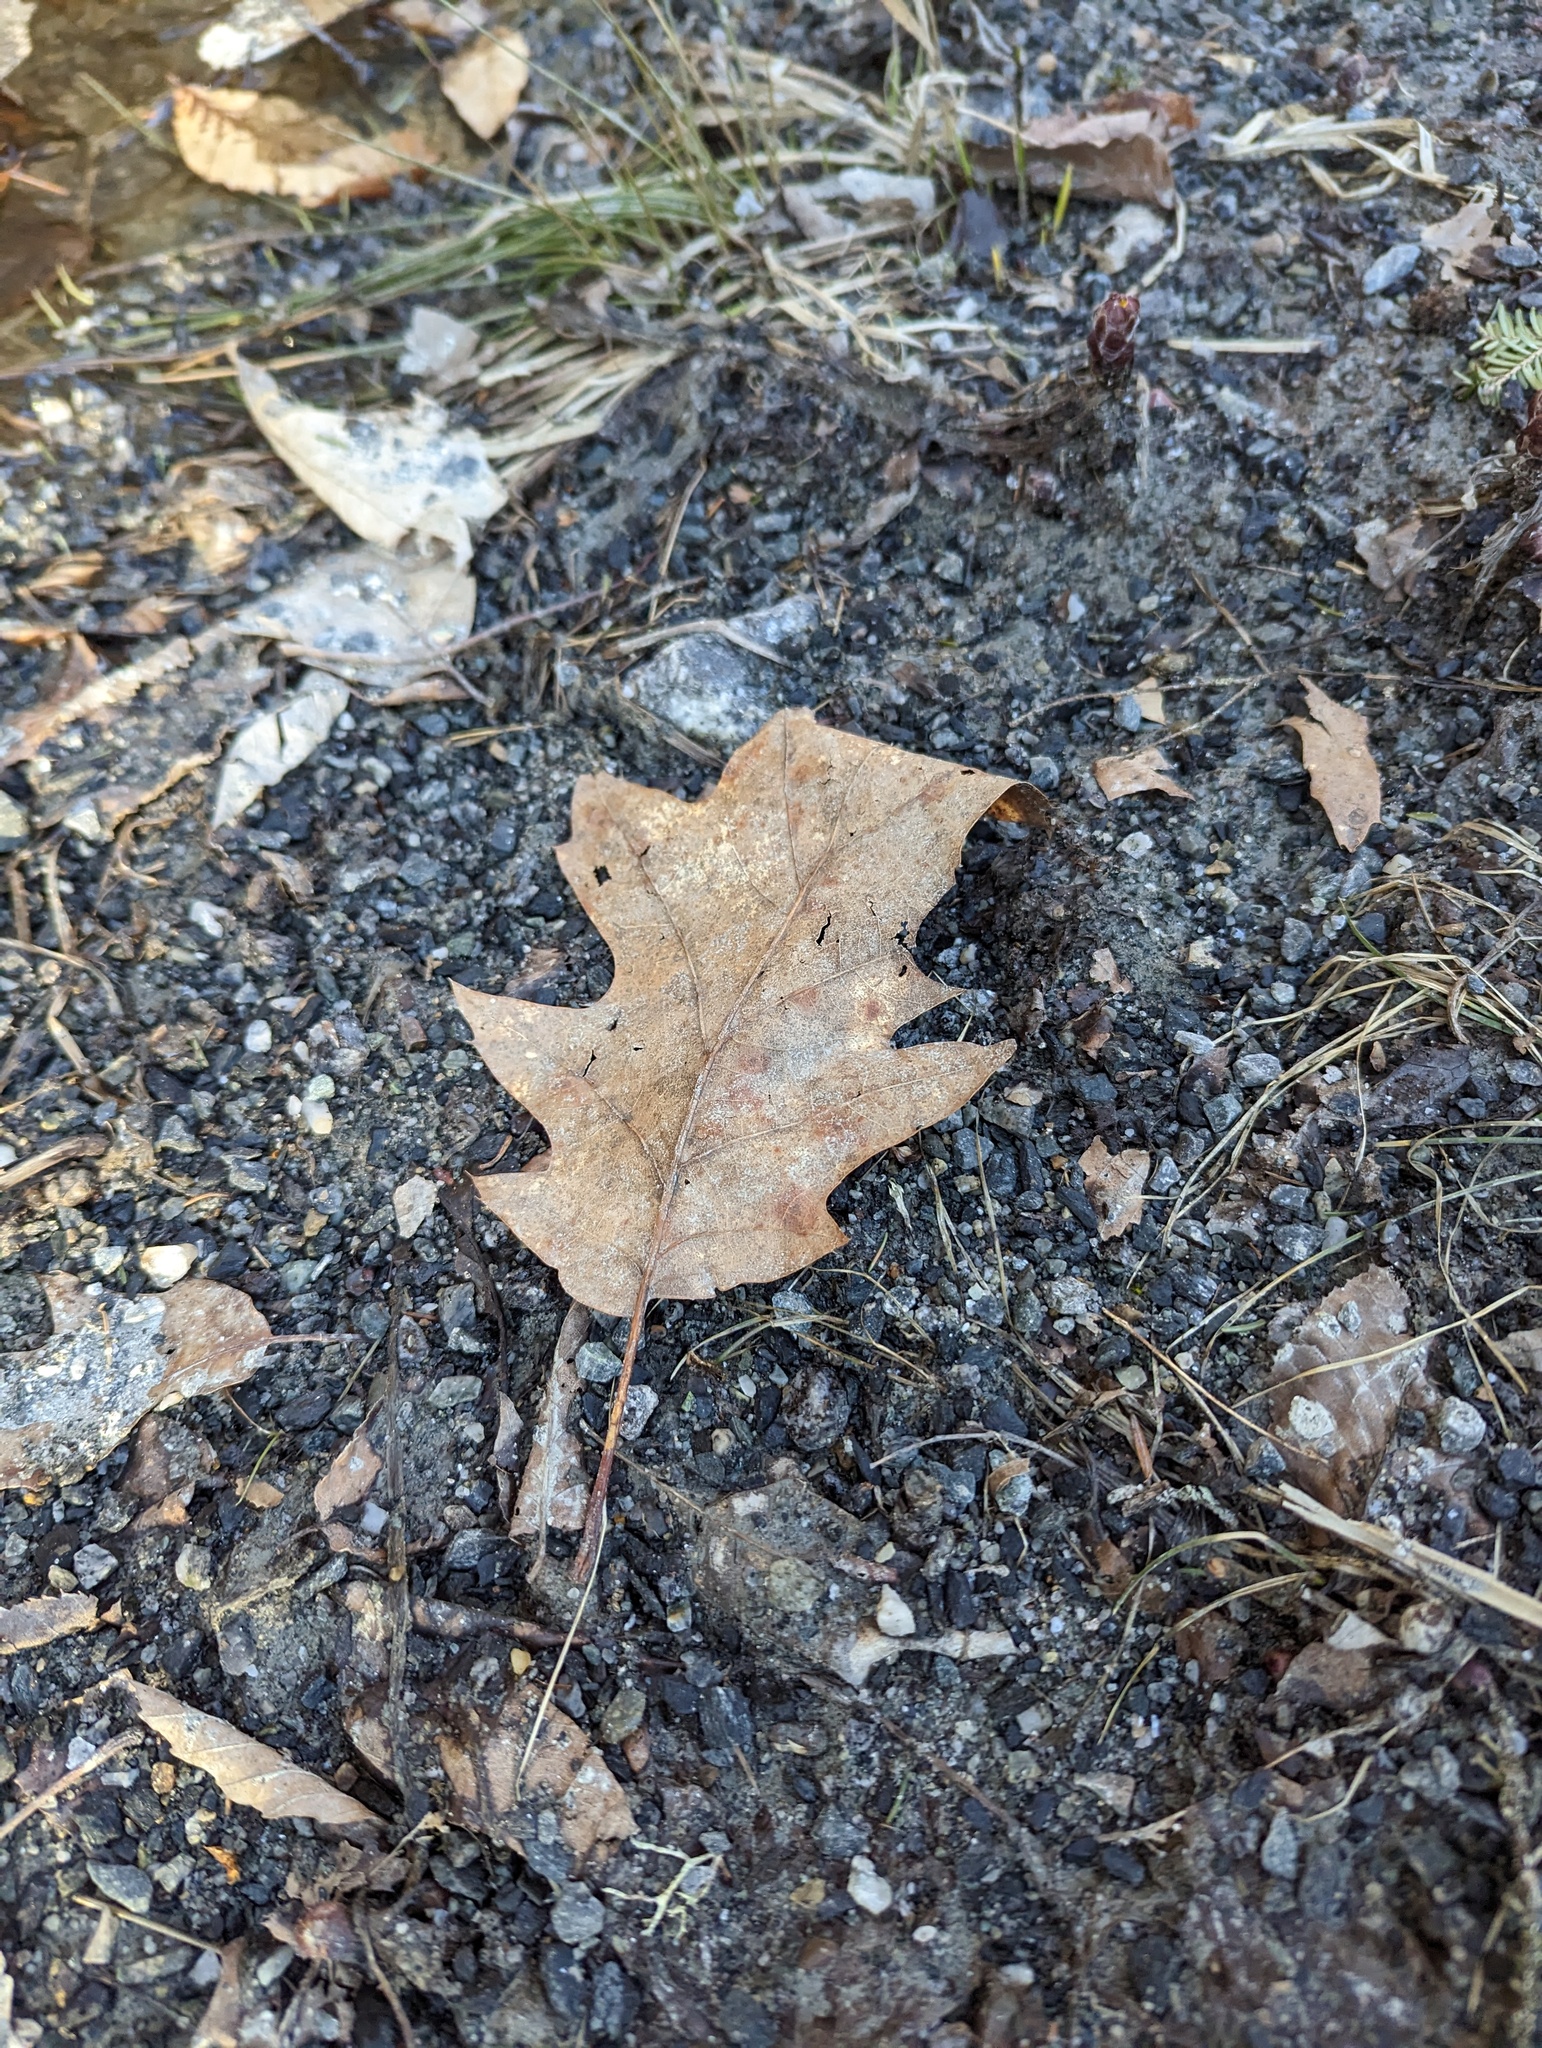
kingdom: Plantae
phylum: Tracheophyta
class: Magnoliopsida
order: Fagales
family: Fagaceae
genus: Quercus
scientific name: Quercus rubra
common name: Red oak
